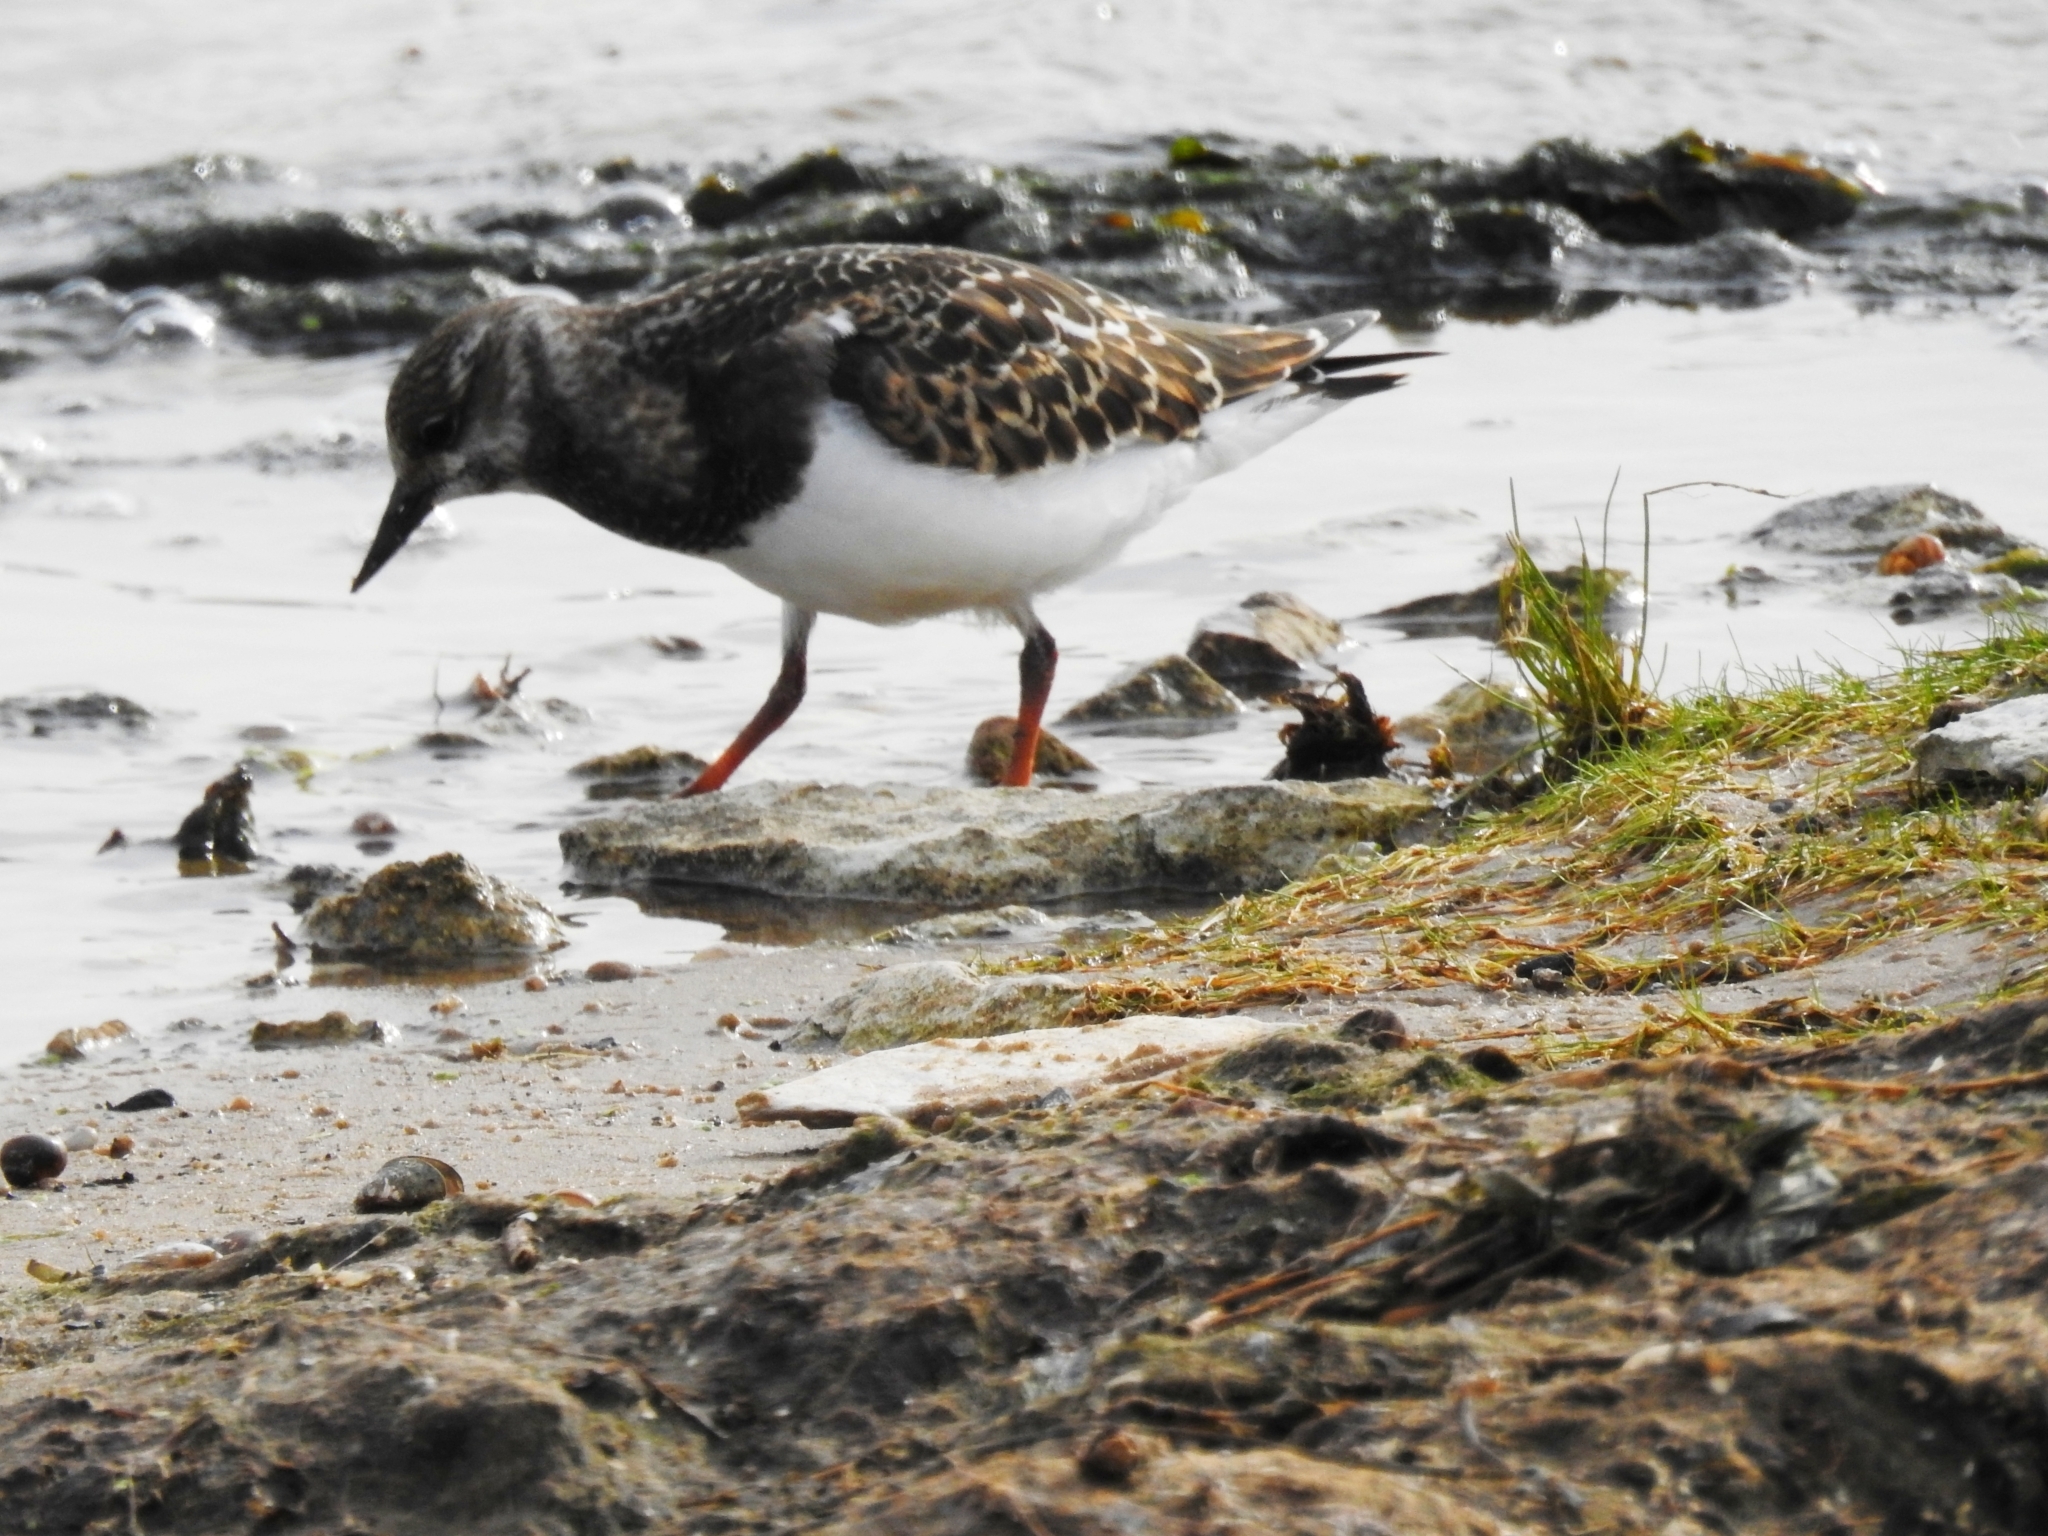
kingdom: Animalia
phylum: Chordata
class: Aves
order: Charadriiformes
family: Scolopacidae
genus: Arenaria
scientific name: Arenaria interpres
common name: Ruddy turnstone
